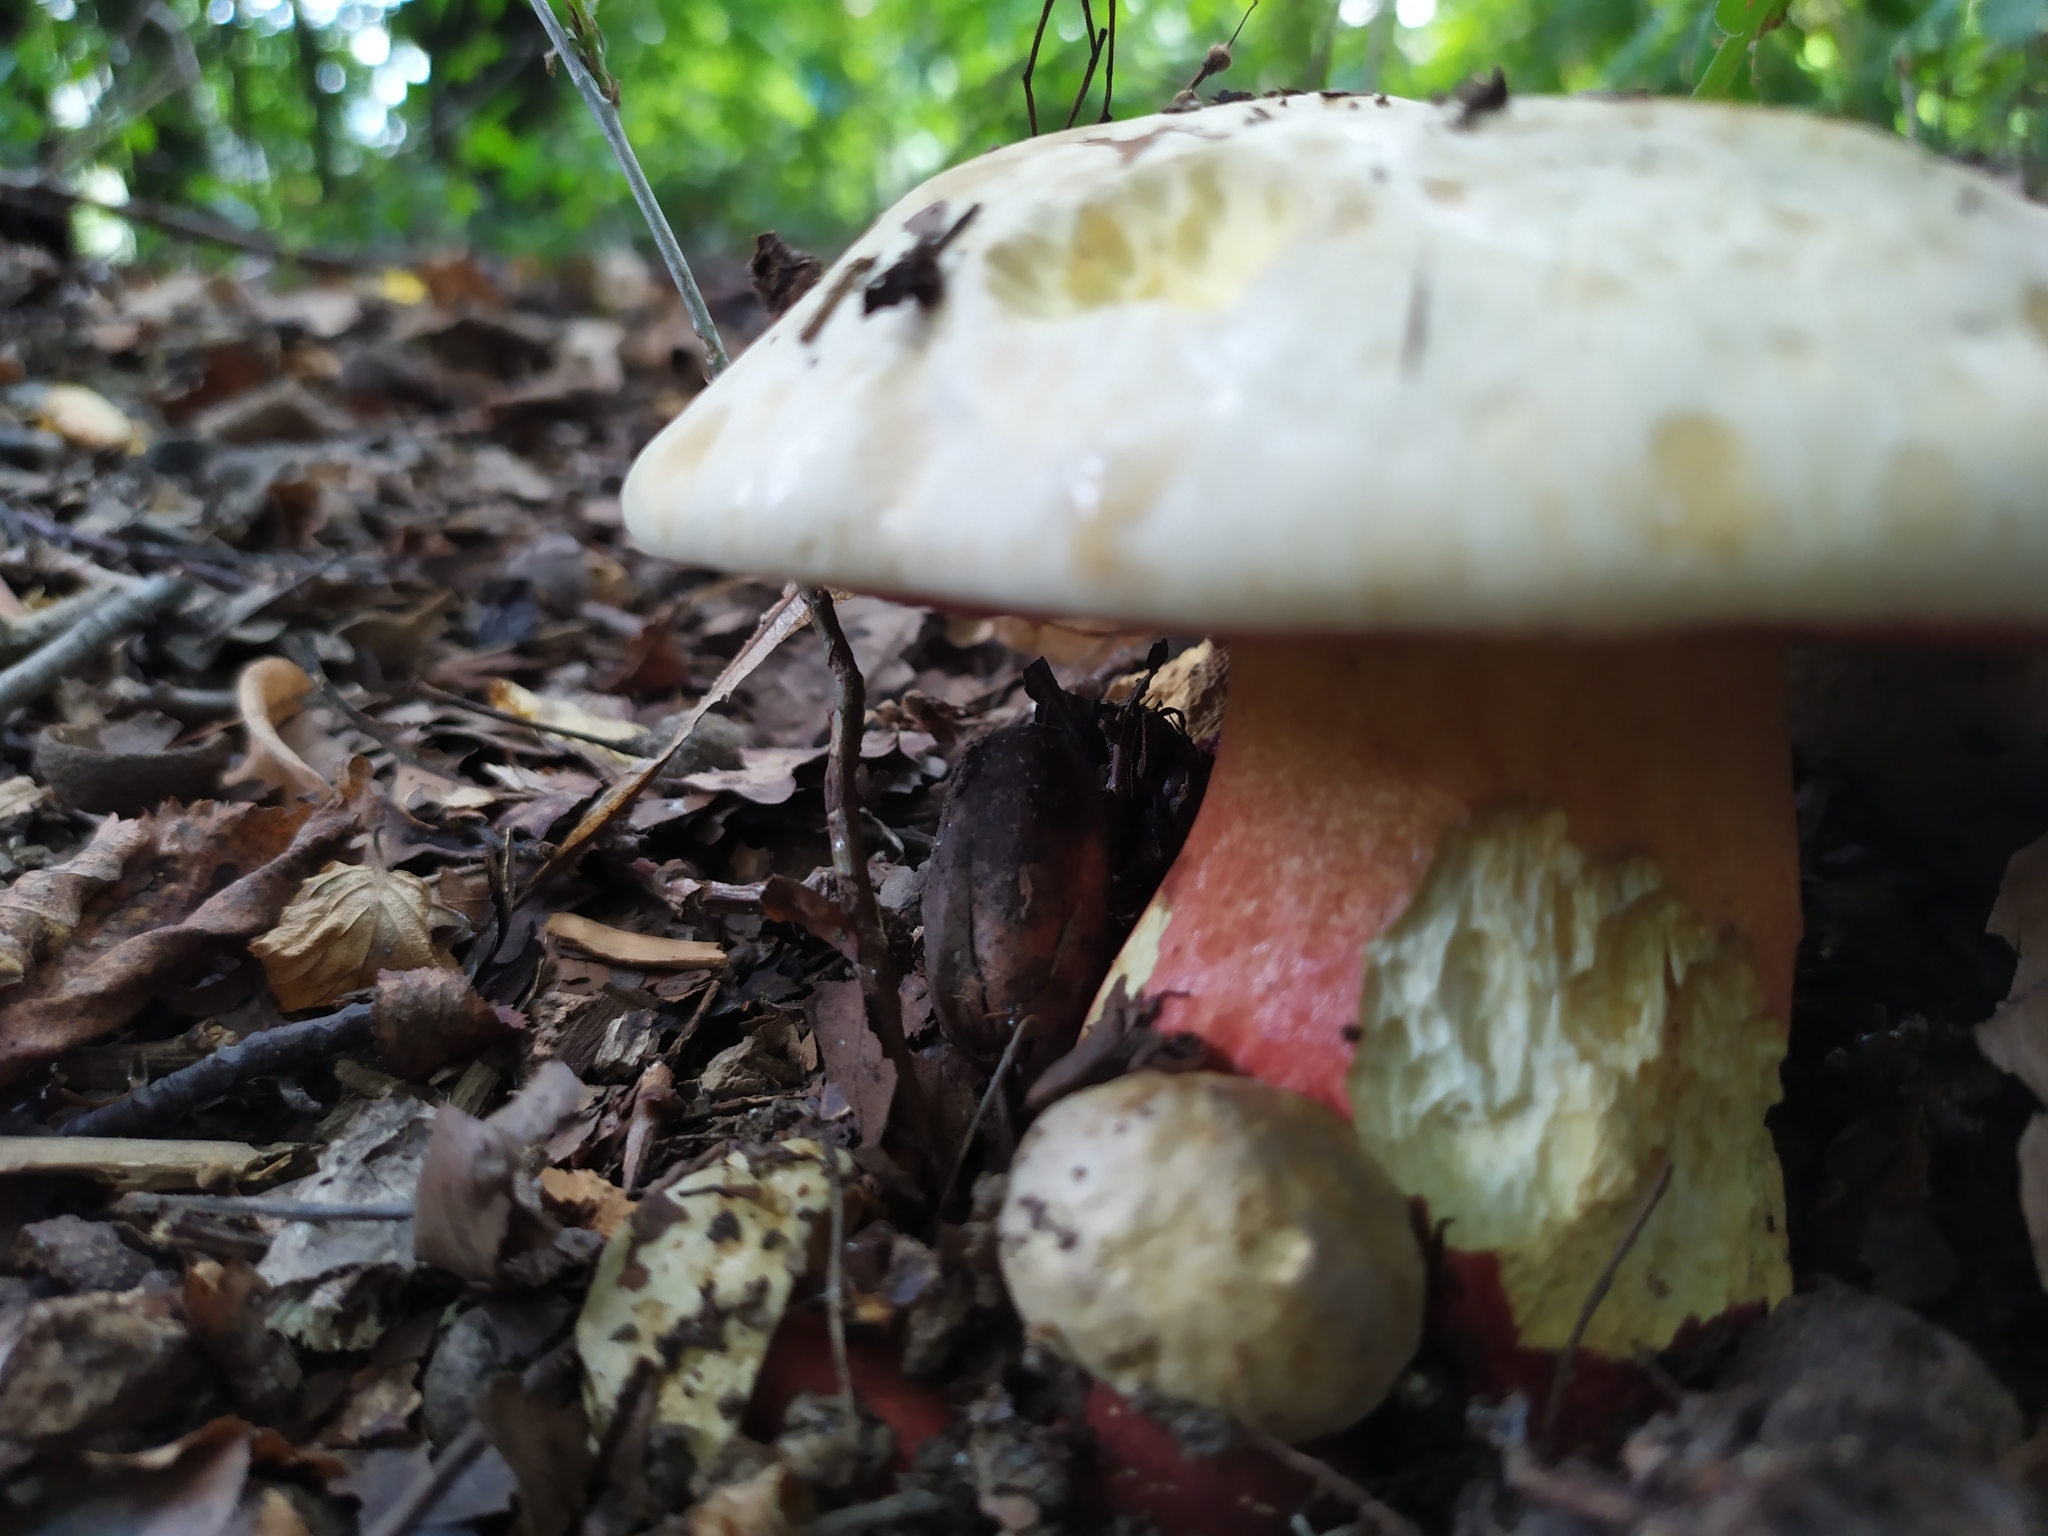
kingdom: Fungi
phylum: Basidiomycota
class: Agaricomycetes
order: Boletales
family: Boletaceae
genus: Rubroboletus
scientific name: Rubroboletus satanas
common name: Devil's bolete
